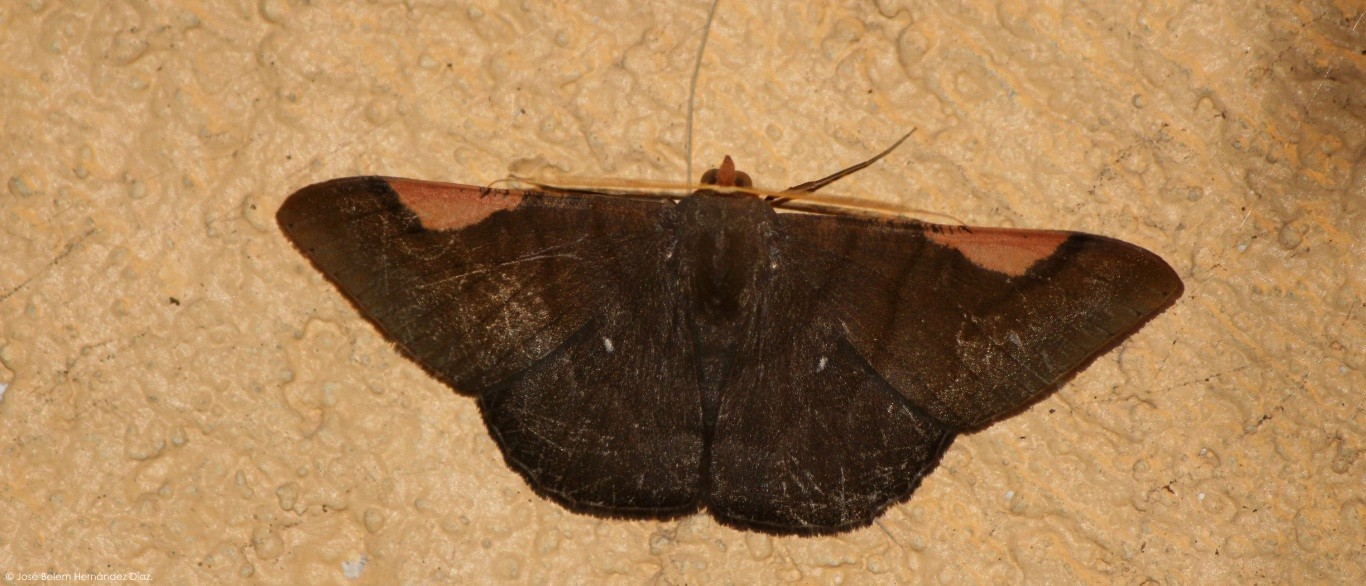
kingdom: Animalia
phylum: Arthropoda
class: Insecta
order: Lepidoptera
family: Geometridae
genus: Sphacelodes
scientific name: Sphacelodes vulneraria
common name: Looper moth
